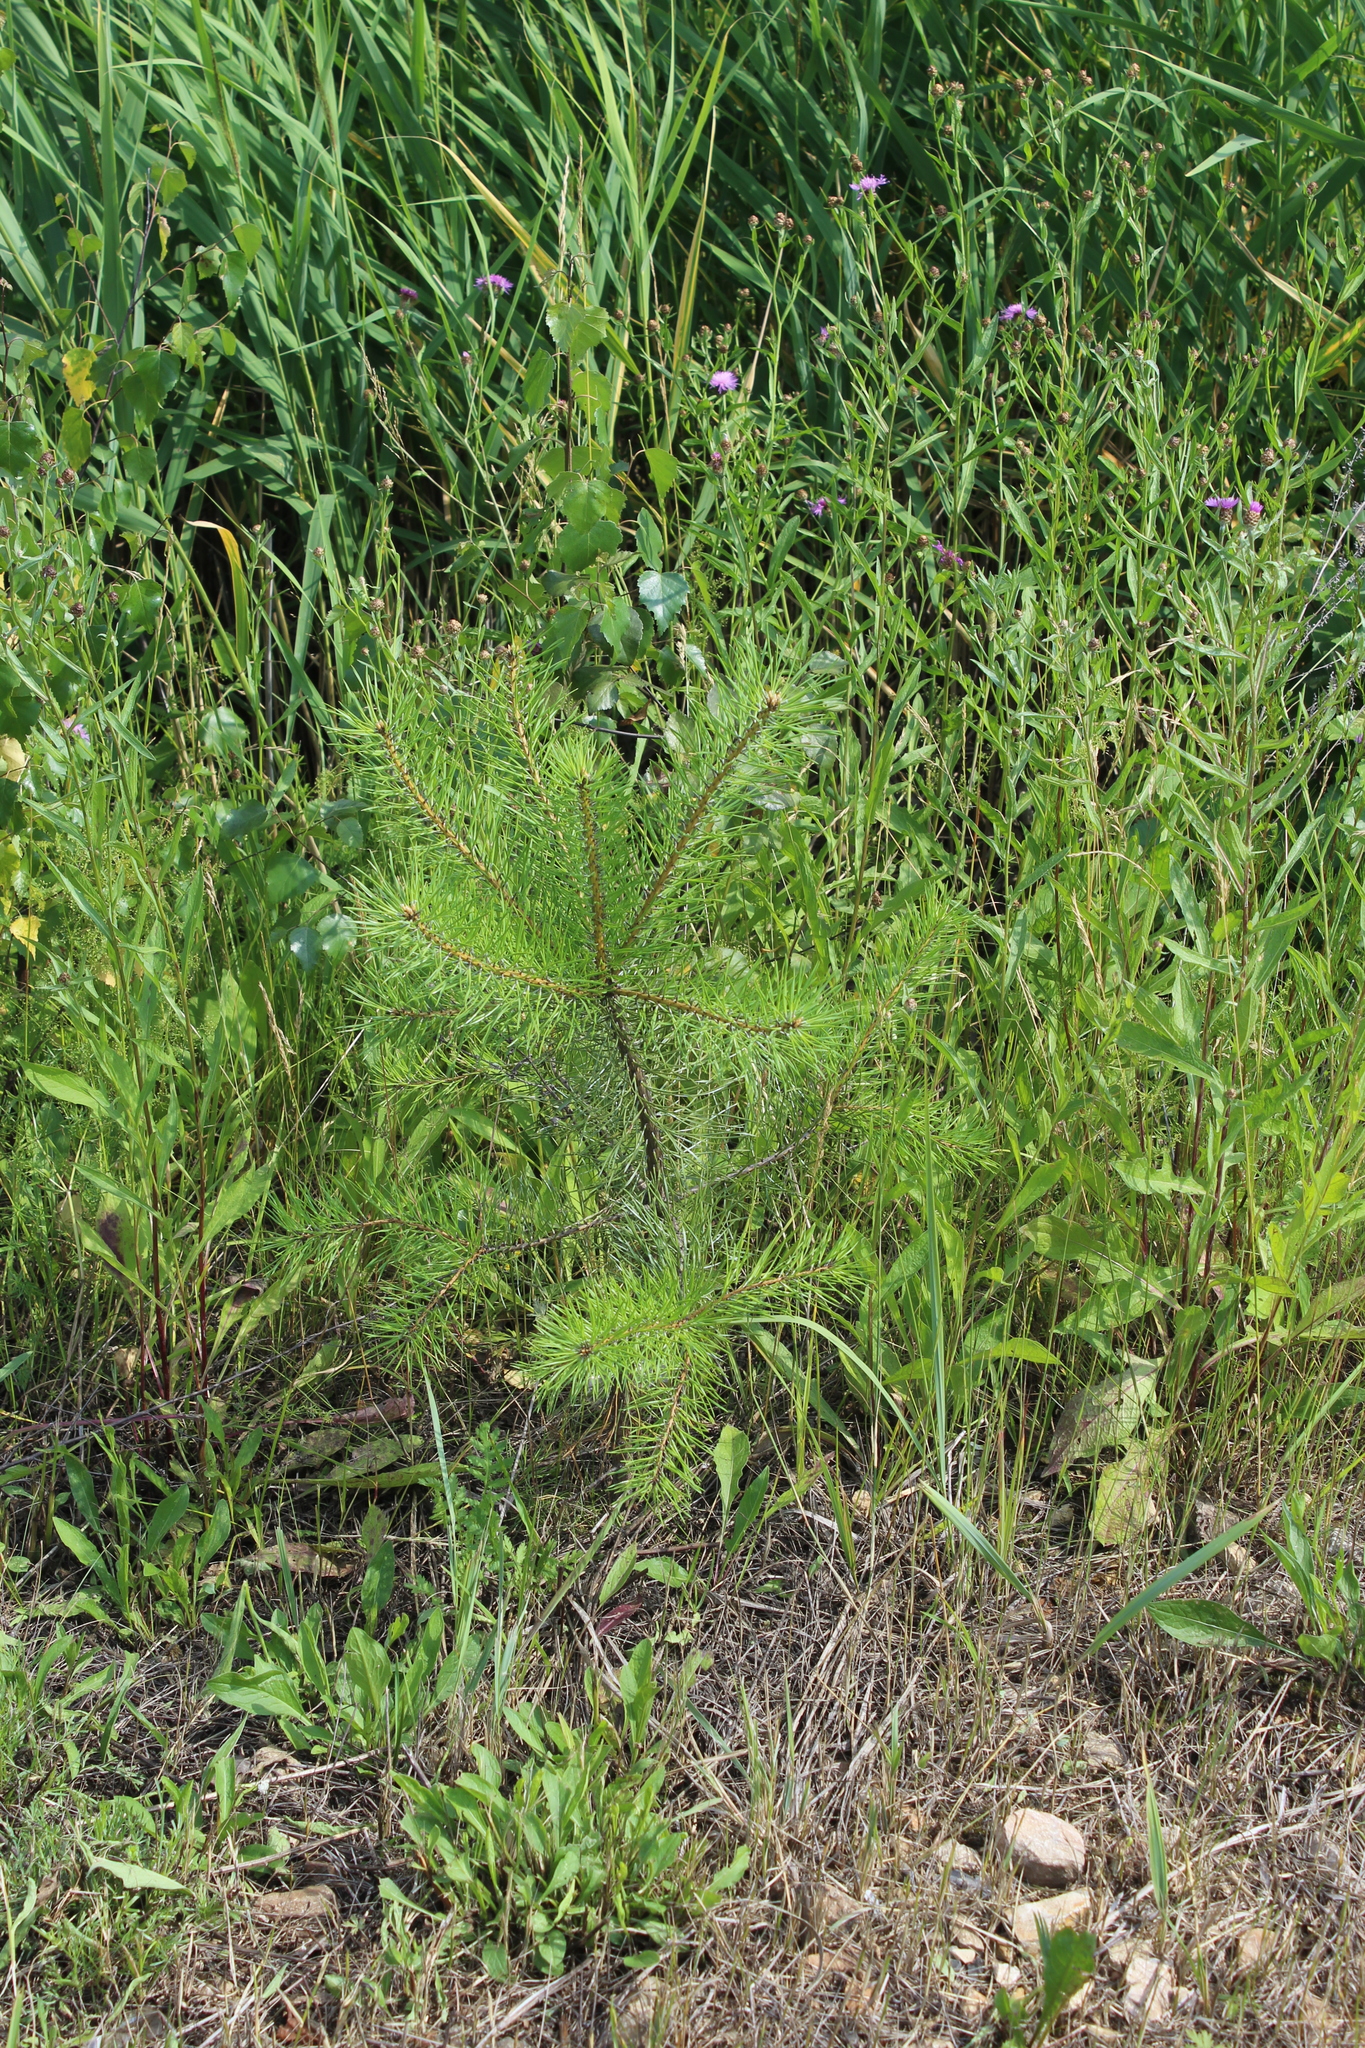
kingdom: Plantae
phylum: Tracheophyta
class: Pinopsida
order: Pinales
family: Pinaceae
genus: Pinus
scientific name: Pinus sylvestris
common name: Scots pine
